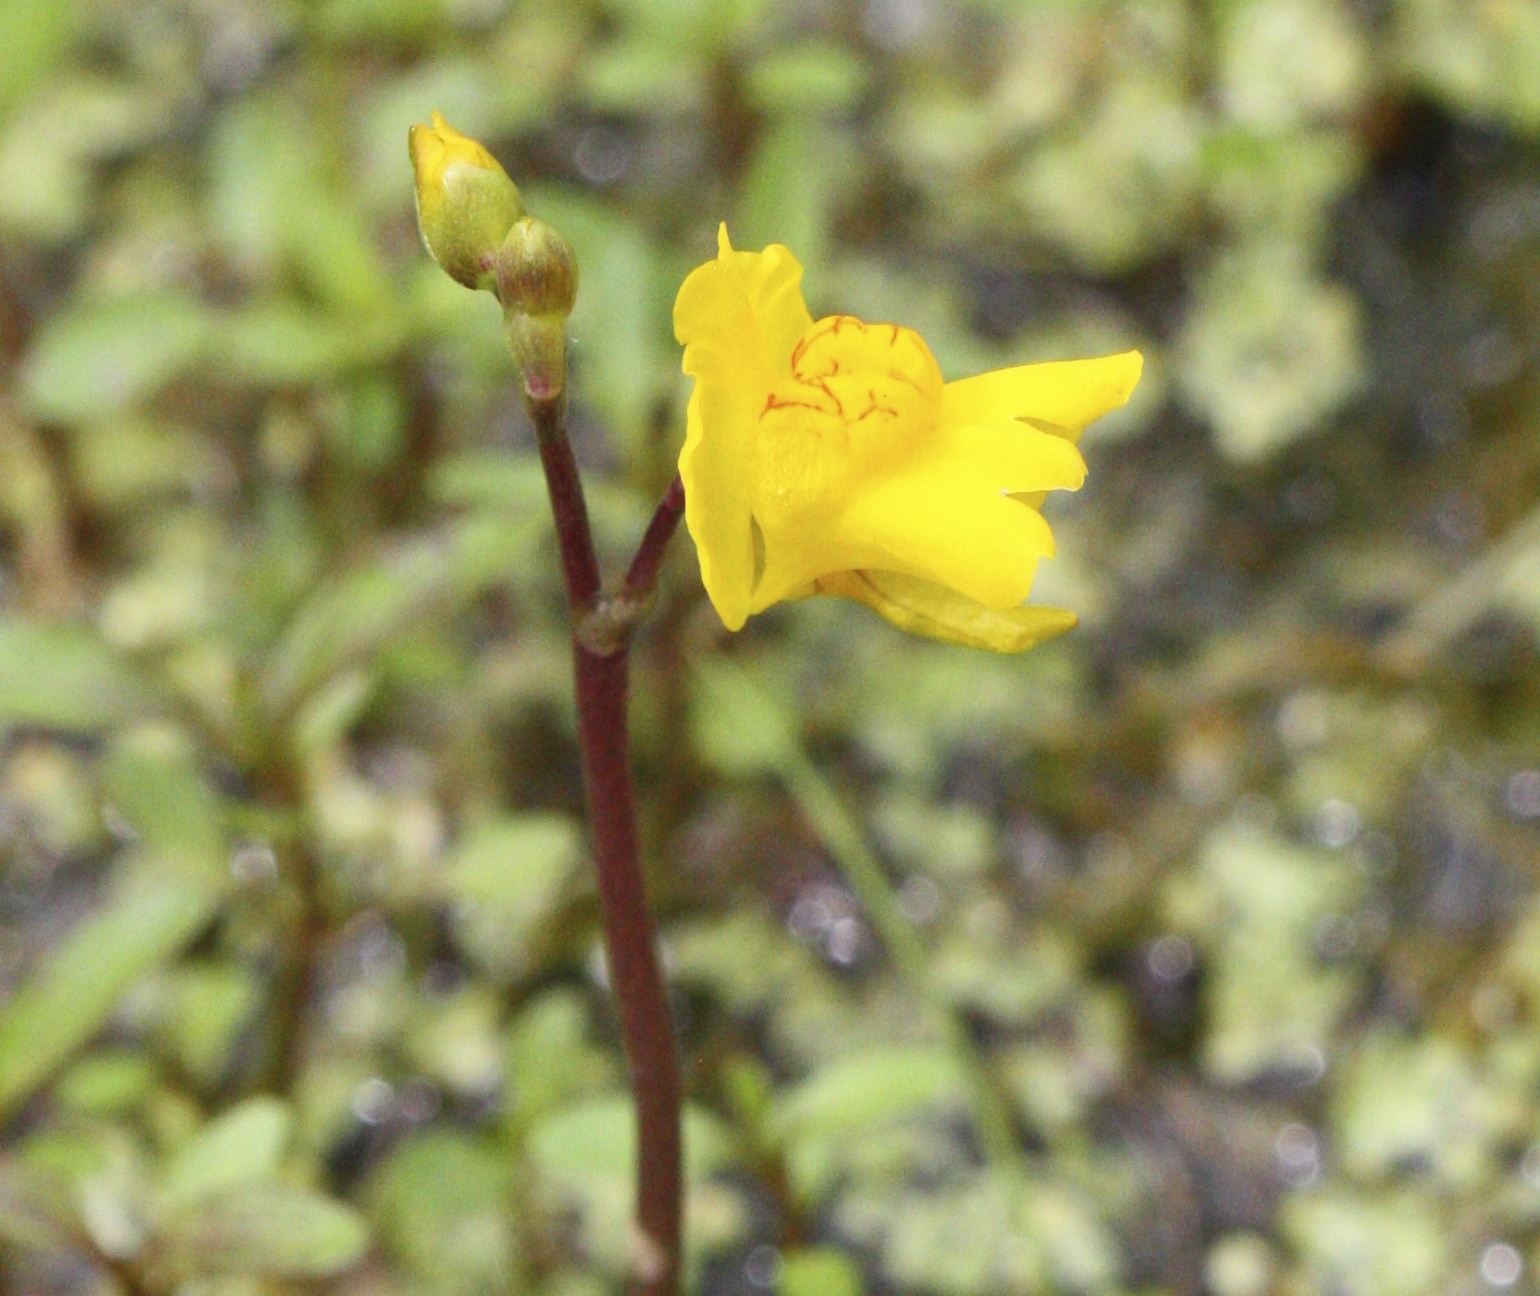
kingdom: Plantae
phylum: Tracheophyta
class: Magnoliopsida
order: Lamiales
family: Lentibulariaceae
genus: Utricularia
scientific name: Utricularia macrorhiza
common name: Common bladderwort
